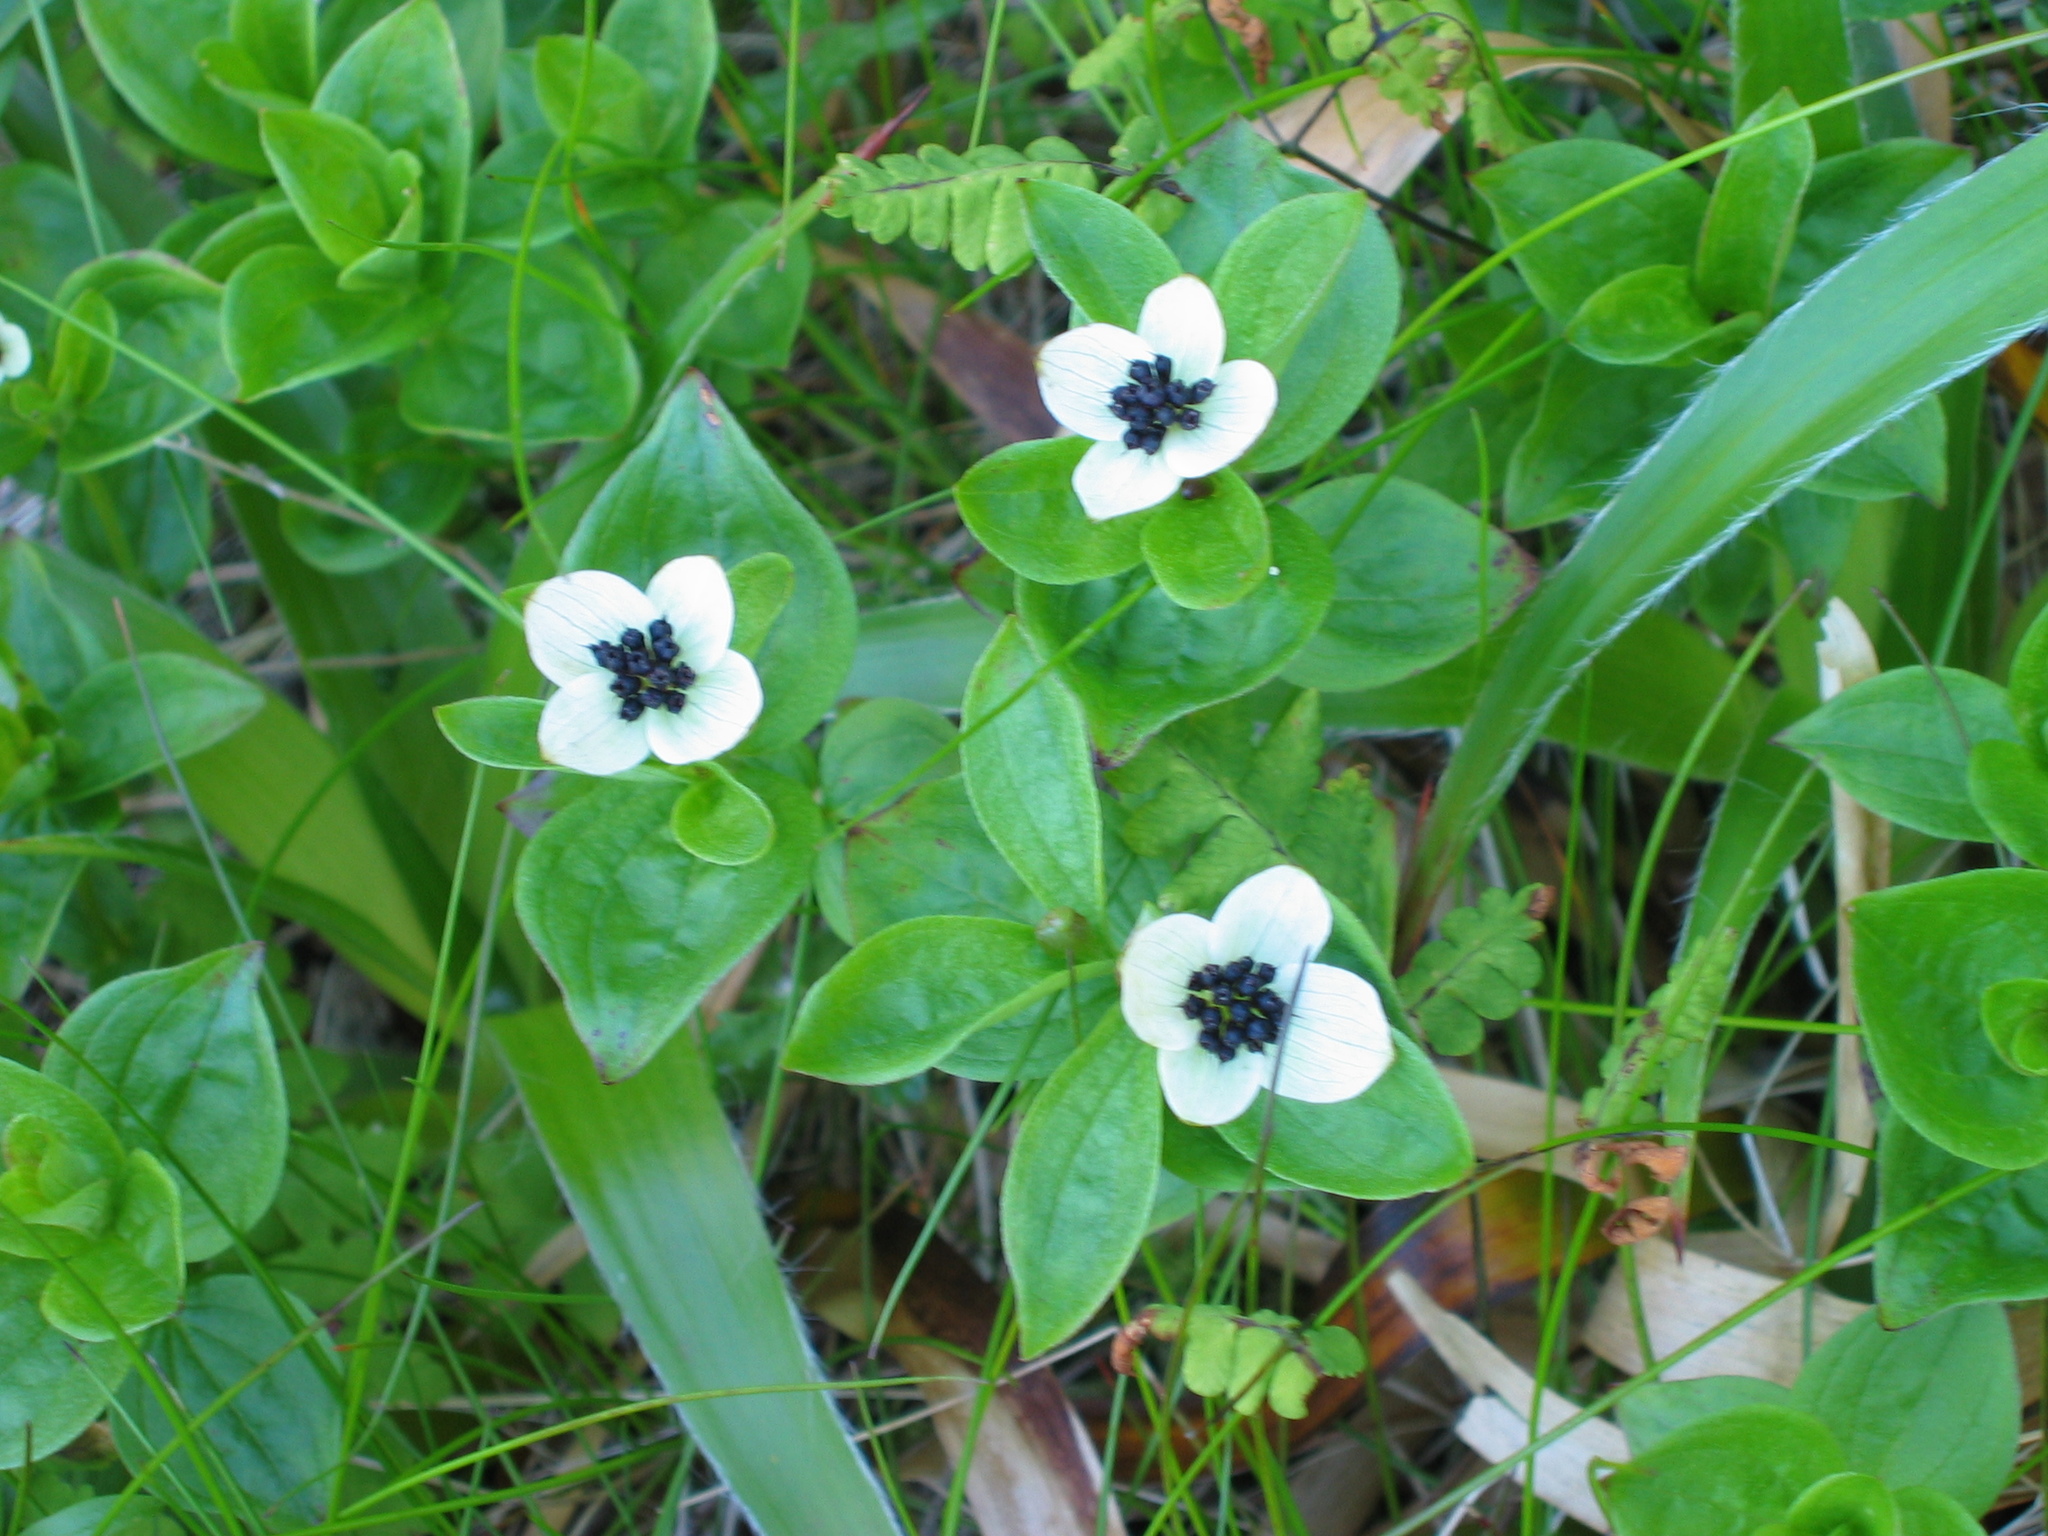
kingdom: Plantae
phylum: Tracheophyta
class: Magnoliopsida
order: Cornales
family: Cornaceae
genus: Cornus
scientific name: Cornus suecica
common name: Dwarf cornel
